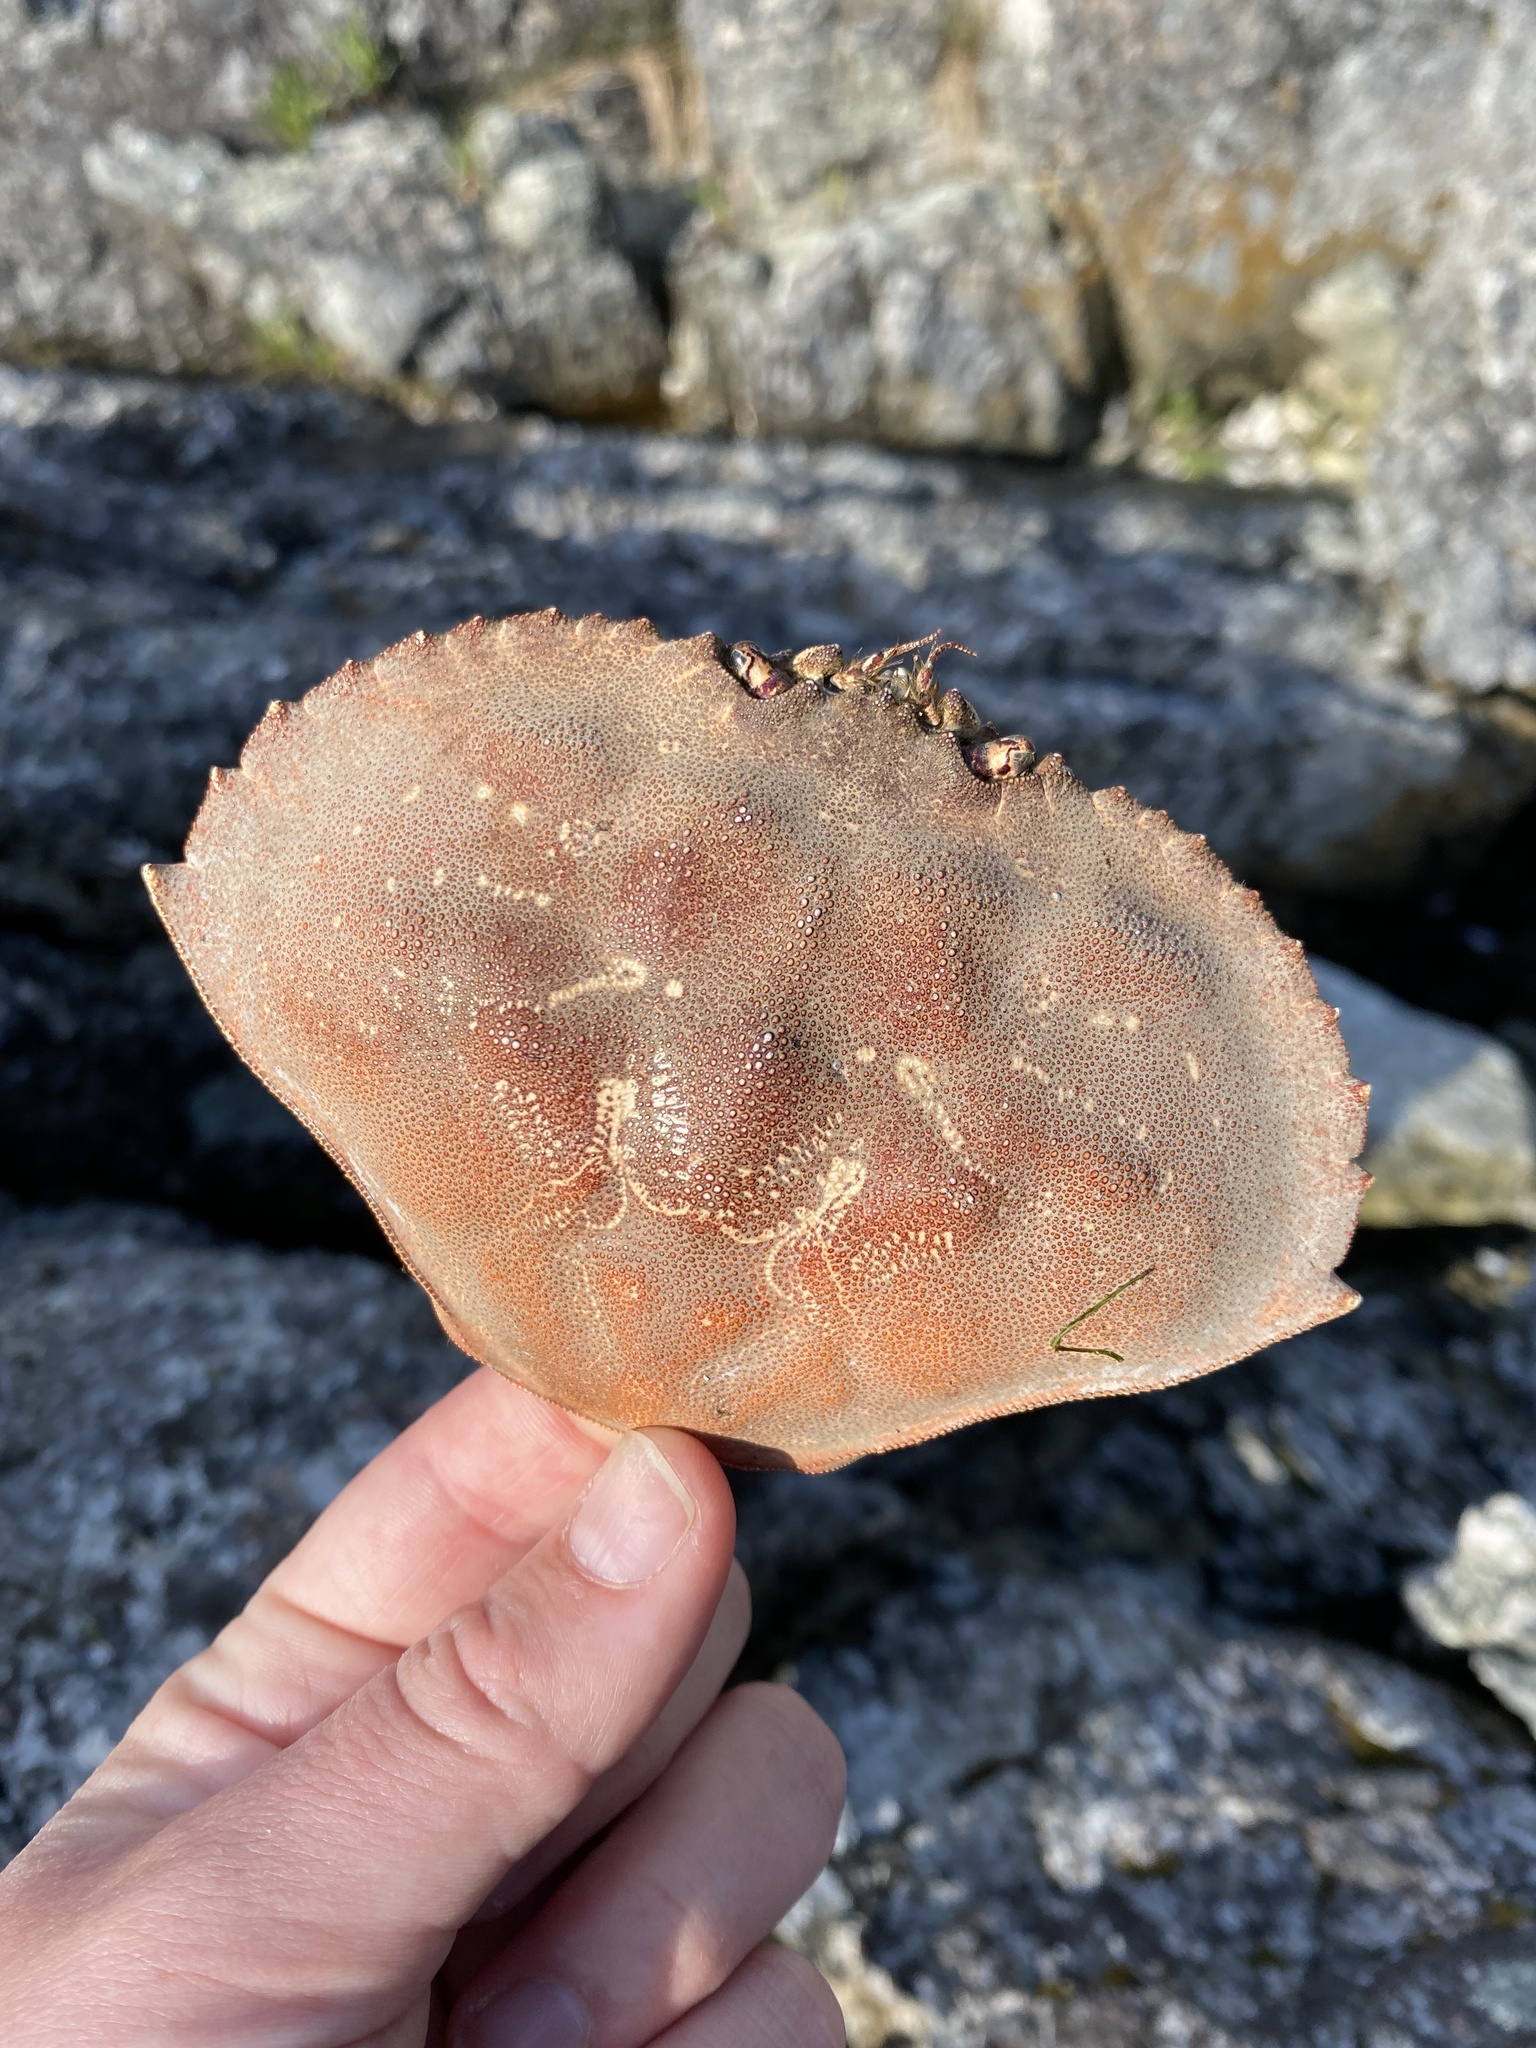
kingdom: Animalia
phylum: Arthropoda
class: Malacostraca
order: Decapoda
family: Cancridae
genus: Metacarcinus
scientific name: Metacarcinus magister
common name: Californian crab
